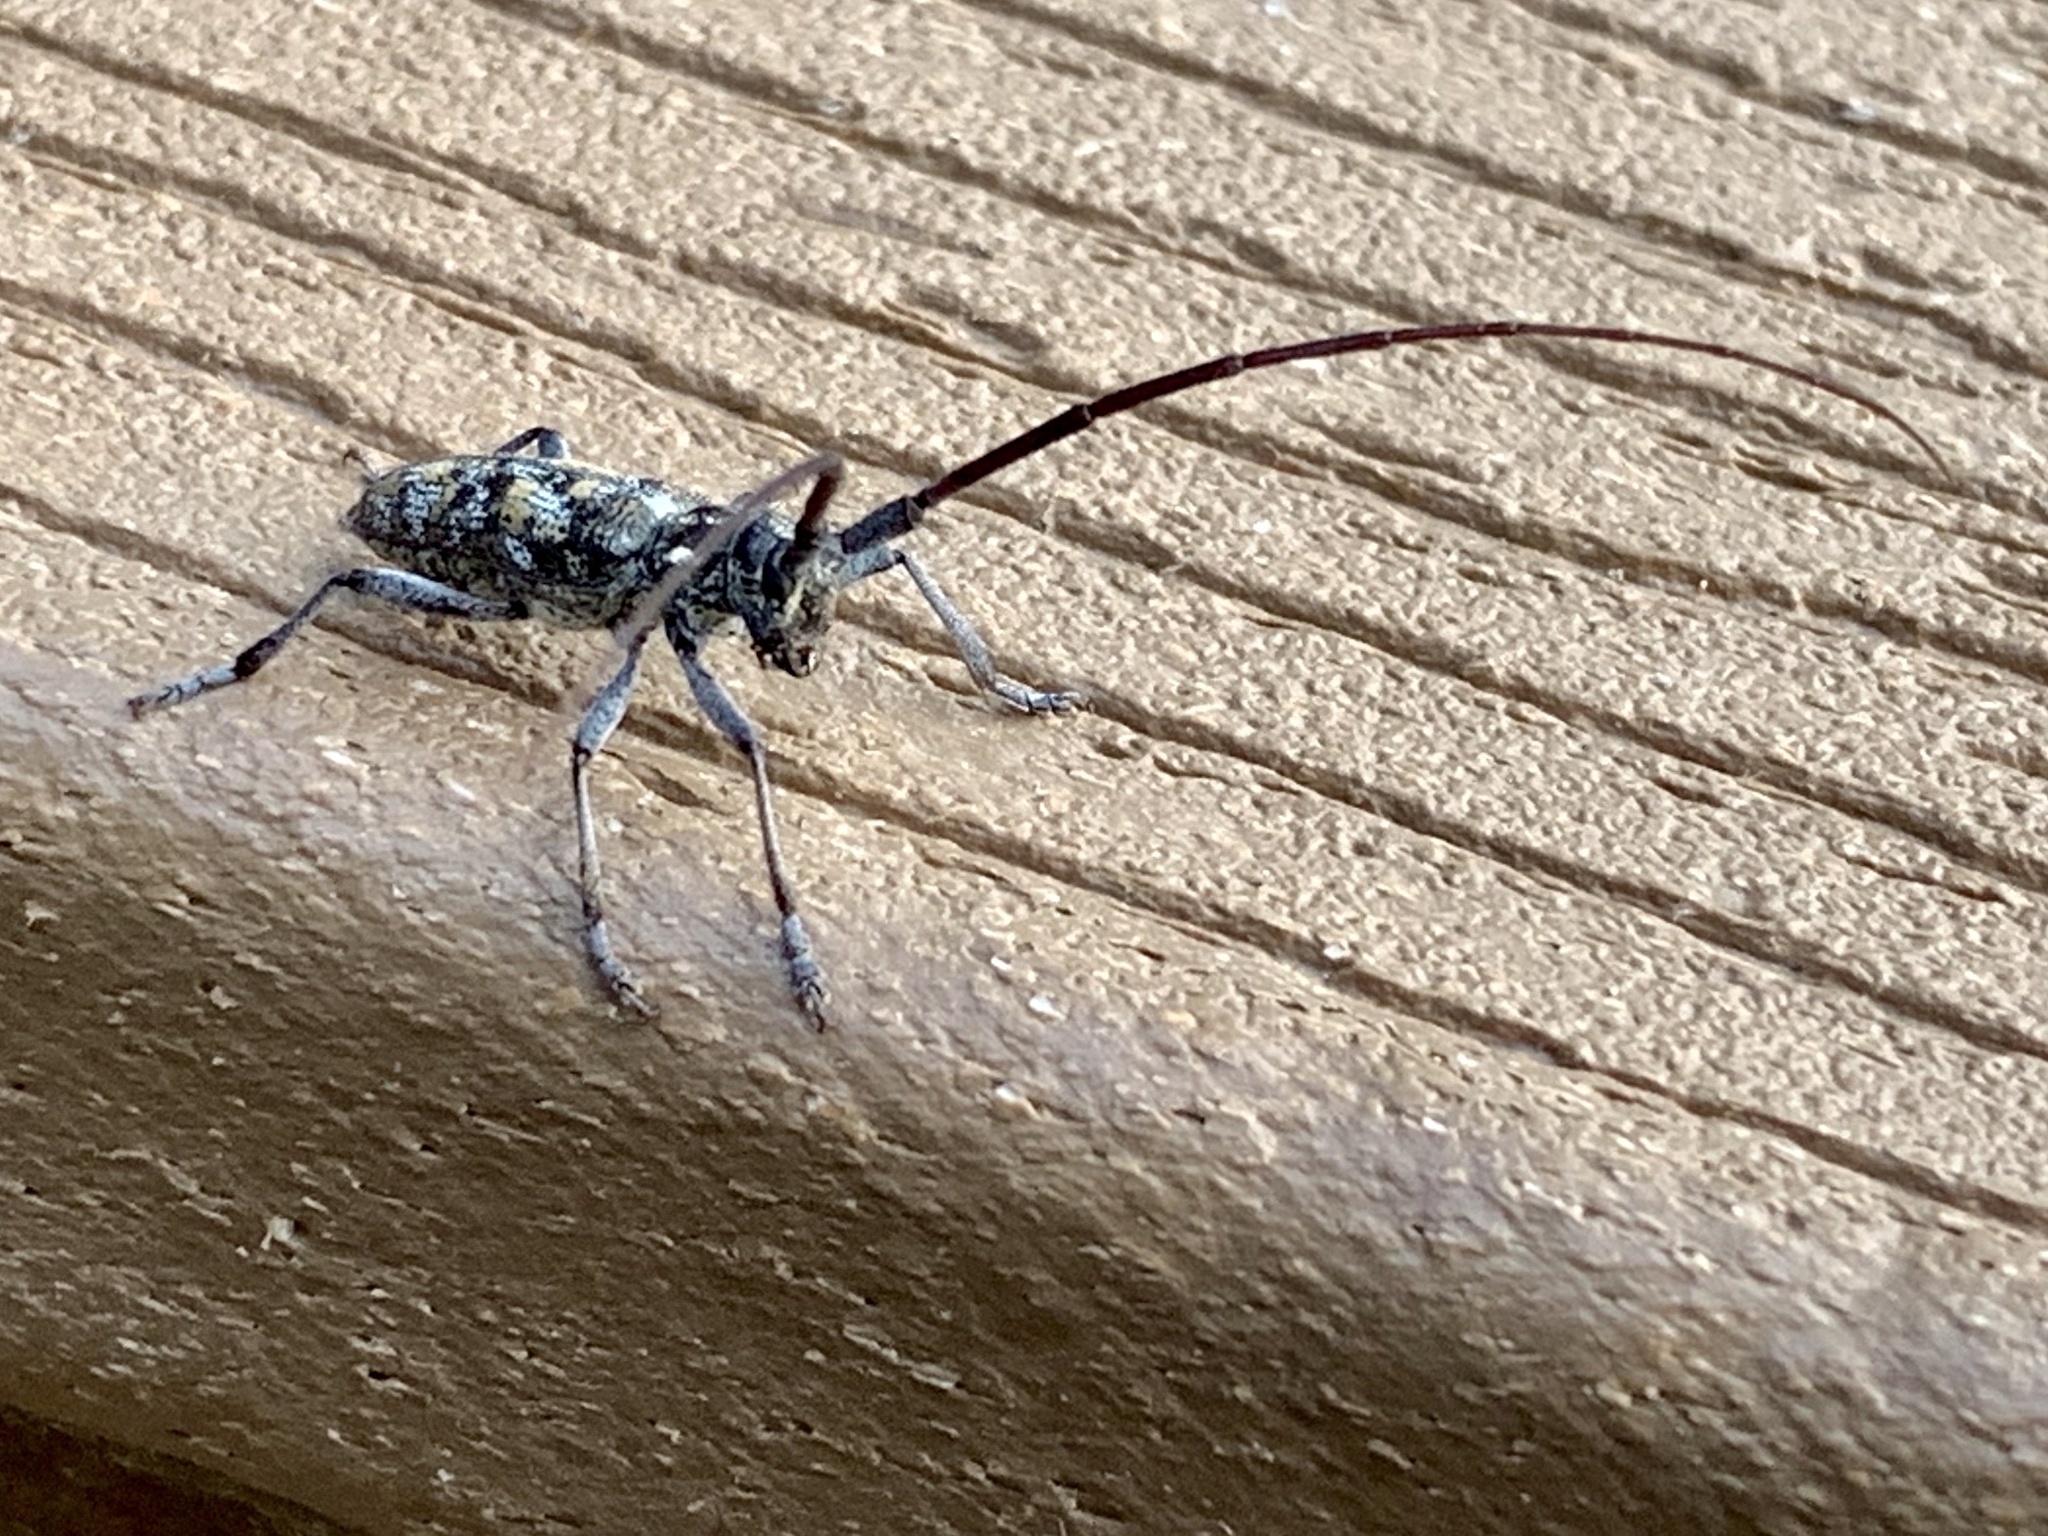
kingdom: Animalia
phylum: Arthropoda
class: Insecta
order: Coleoptera
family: Cerambycidae
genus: Monochamus
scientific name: Monochamus clamator
